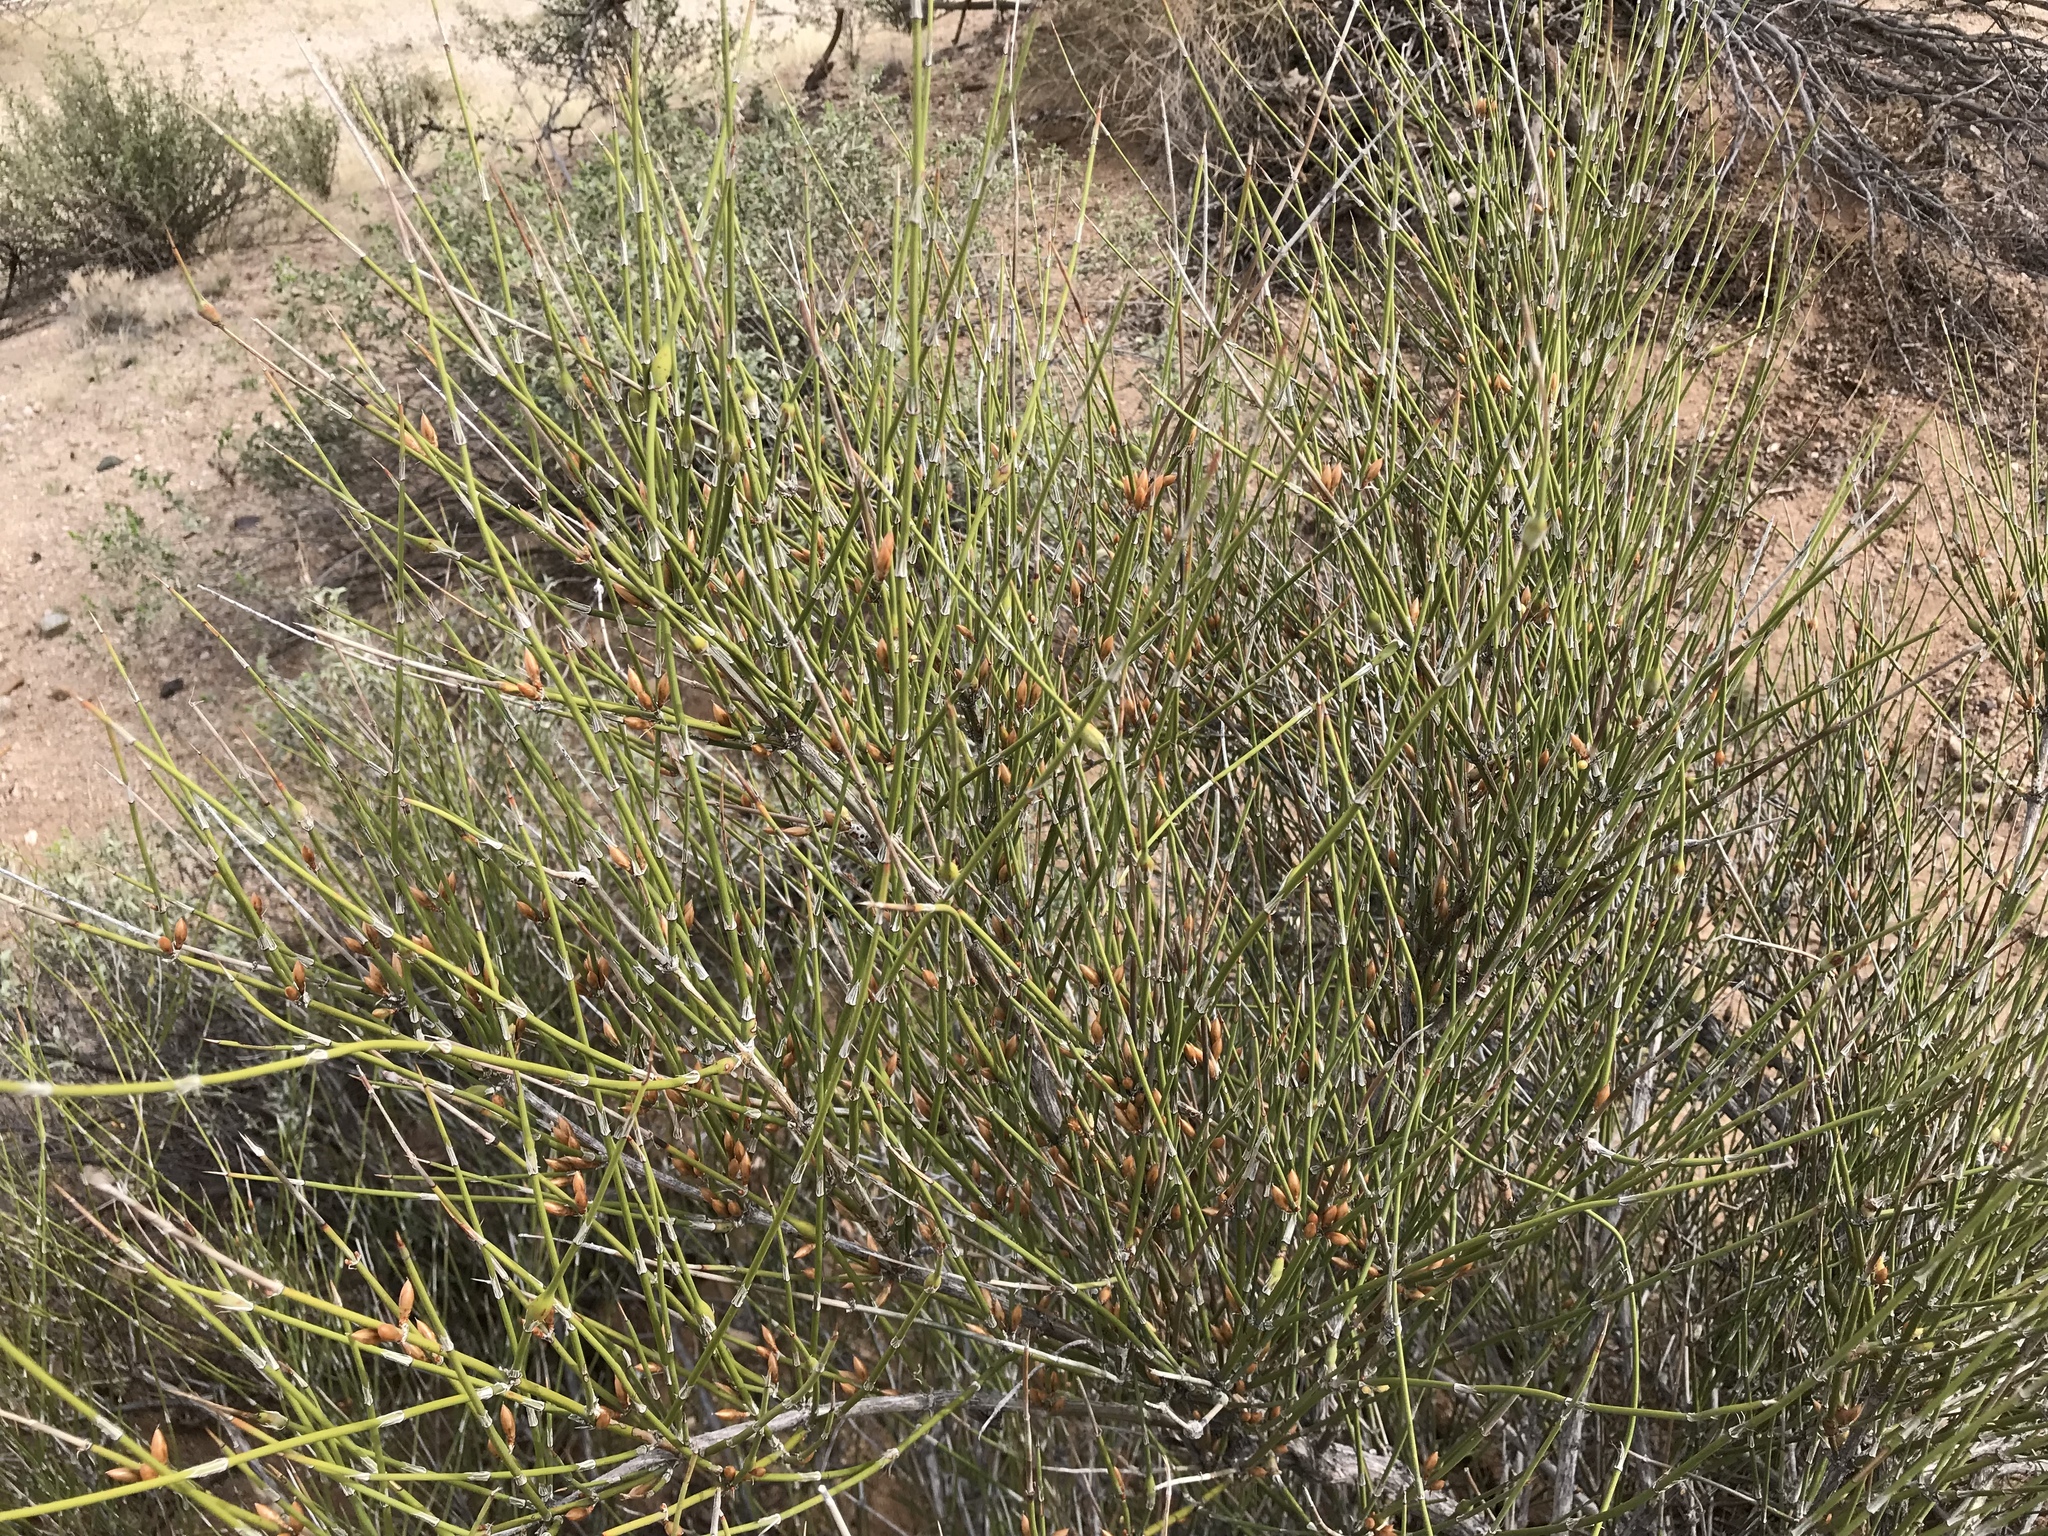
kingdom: Plantae
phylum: Tracheophyta
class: Gnetopsida
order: Ephedrales
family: Ephedraceae
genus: Ephedra
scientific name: Ephedra trifurca
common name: Mexican-tea
